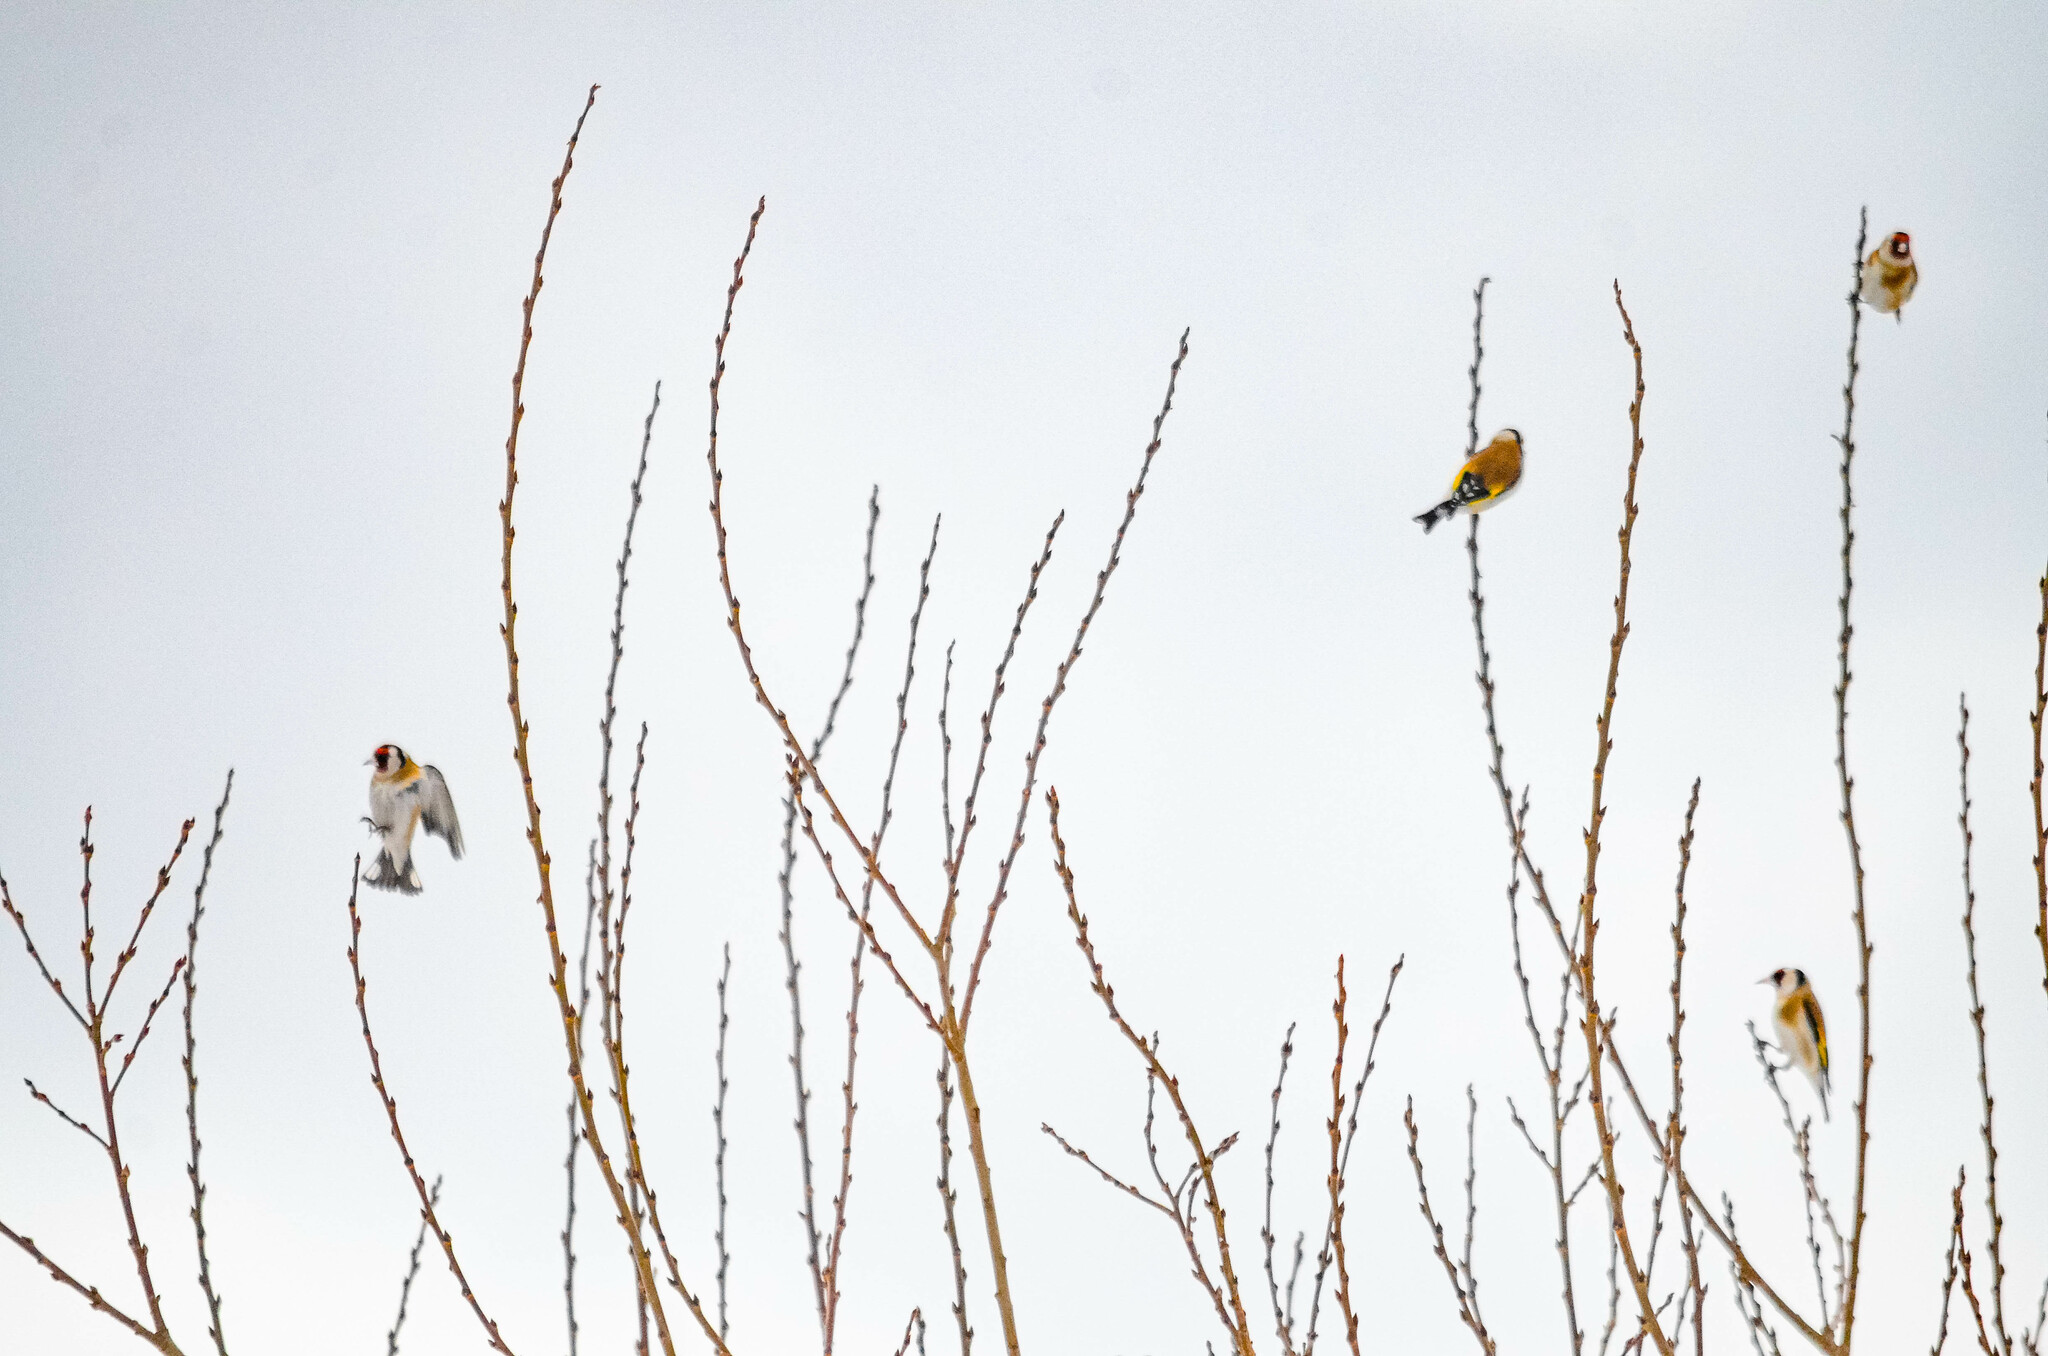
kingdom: Animalia
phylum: Chordata
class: Aves
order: Passeriformes
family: Fringillidae
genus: Carduelis
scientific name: Carduelis carduelis
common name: European goldfinch
